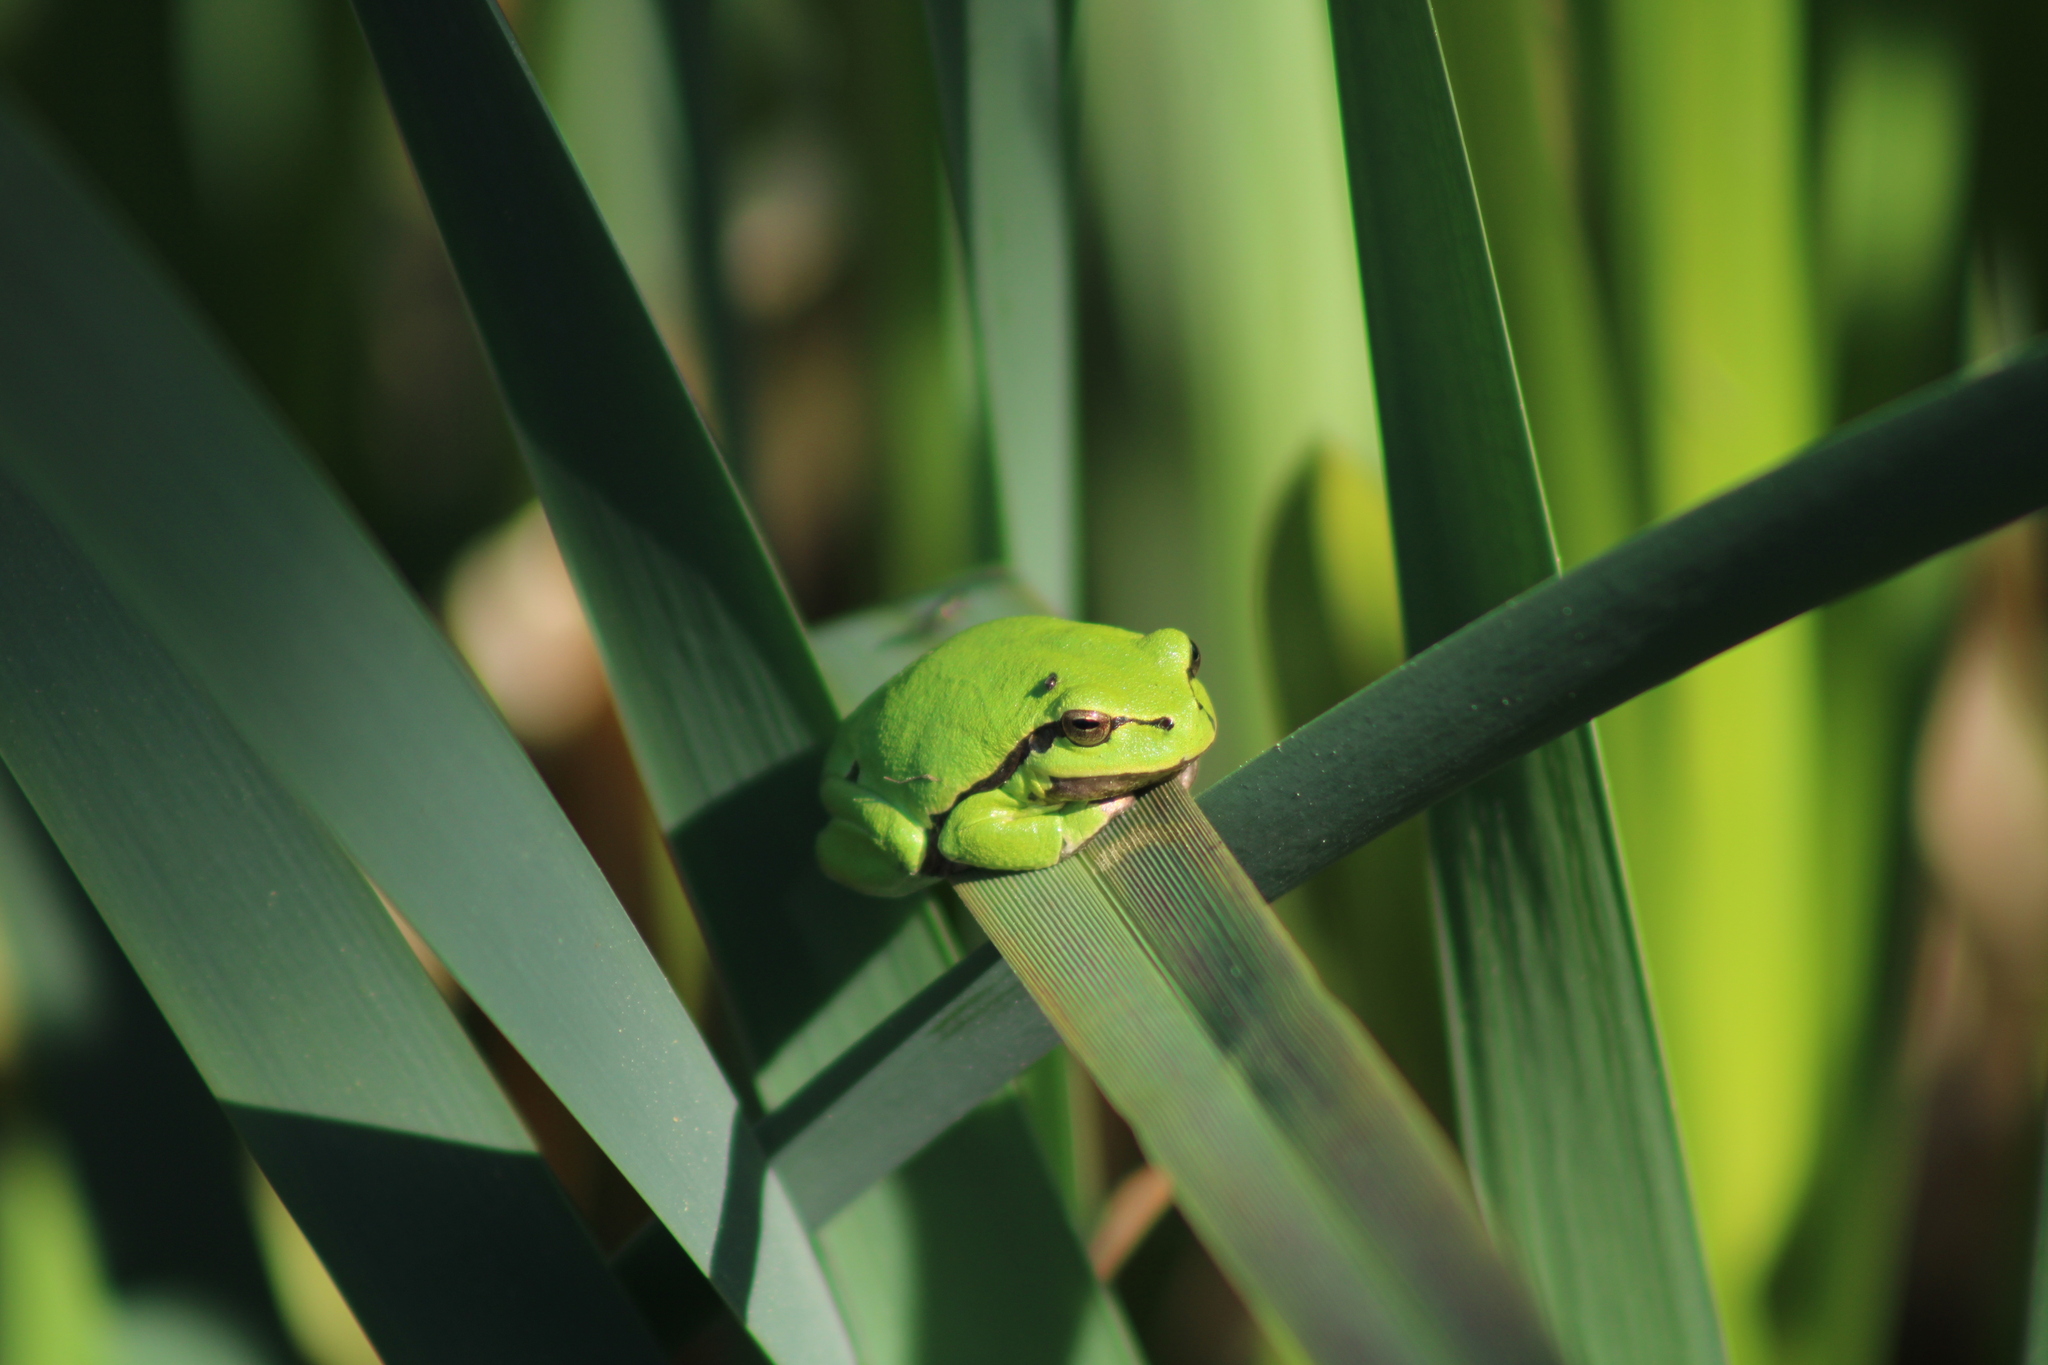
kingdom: Animalia
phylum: Chordata
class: Amphibia
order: Anura
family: Hylidae
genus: Hyla
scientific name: Hyla arborea
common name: Common tree frog
